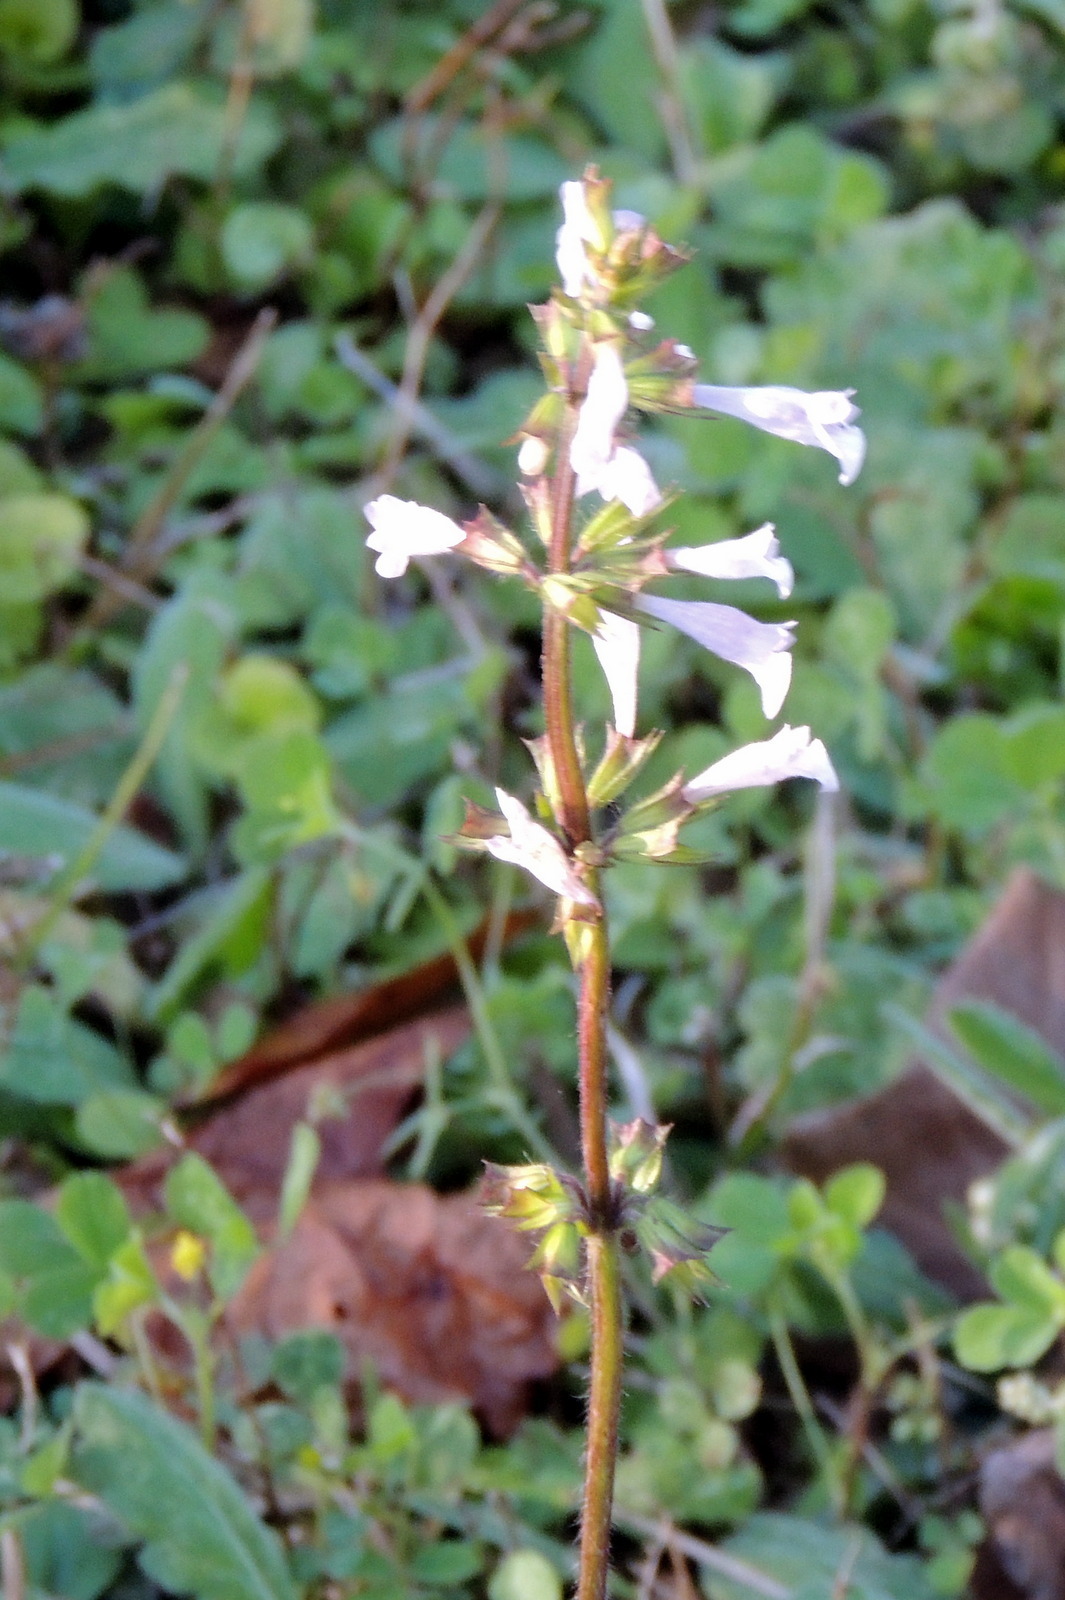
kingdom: Plantae
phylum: Tracheophyta
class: Magnoliopsida
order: Lamiales
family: Lamiaceae
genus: Salvia
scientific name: Salvia lyrata
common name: Cancerweed
